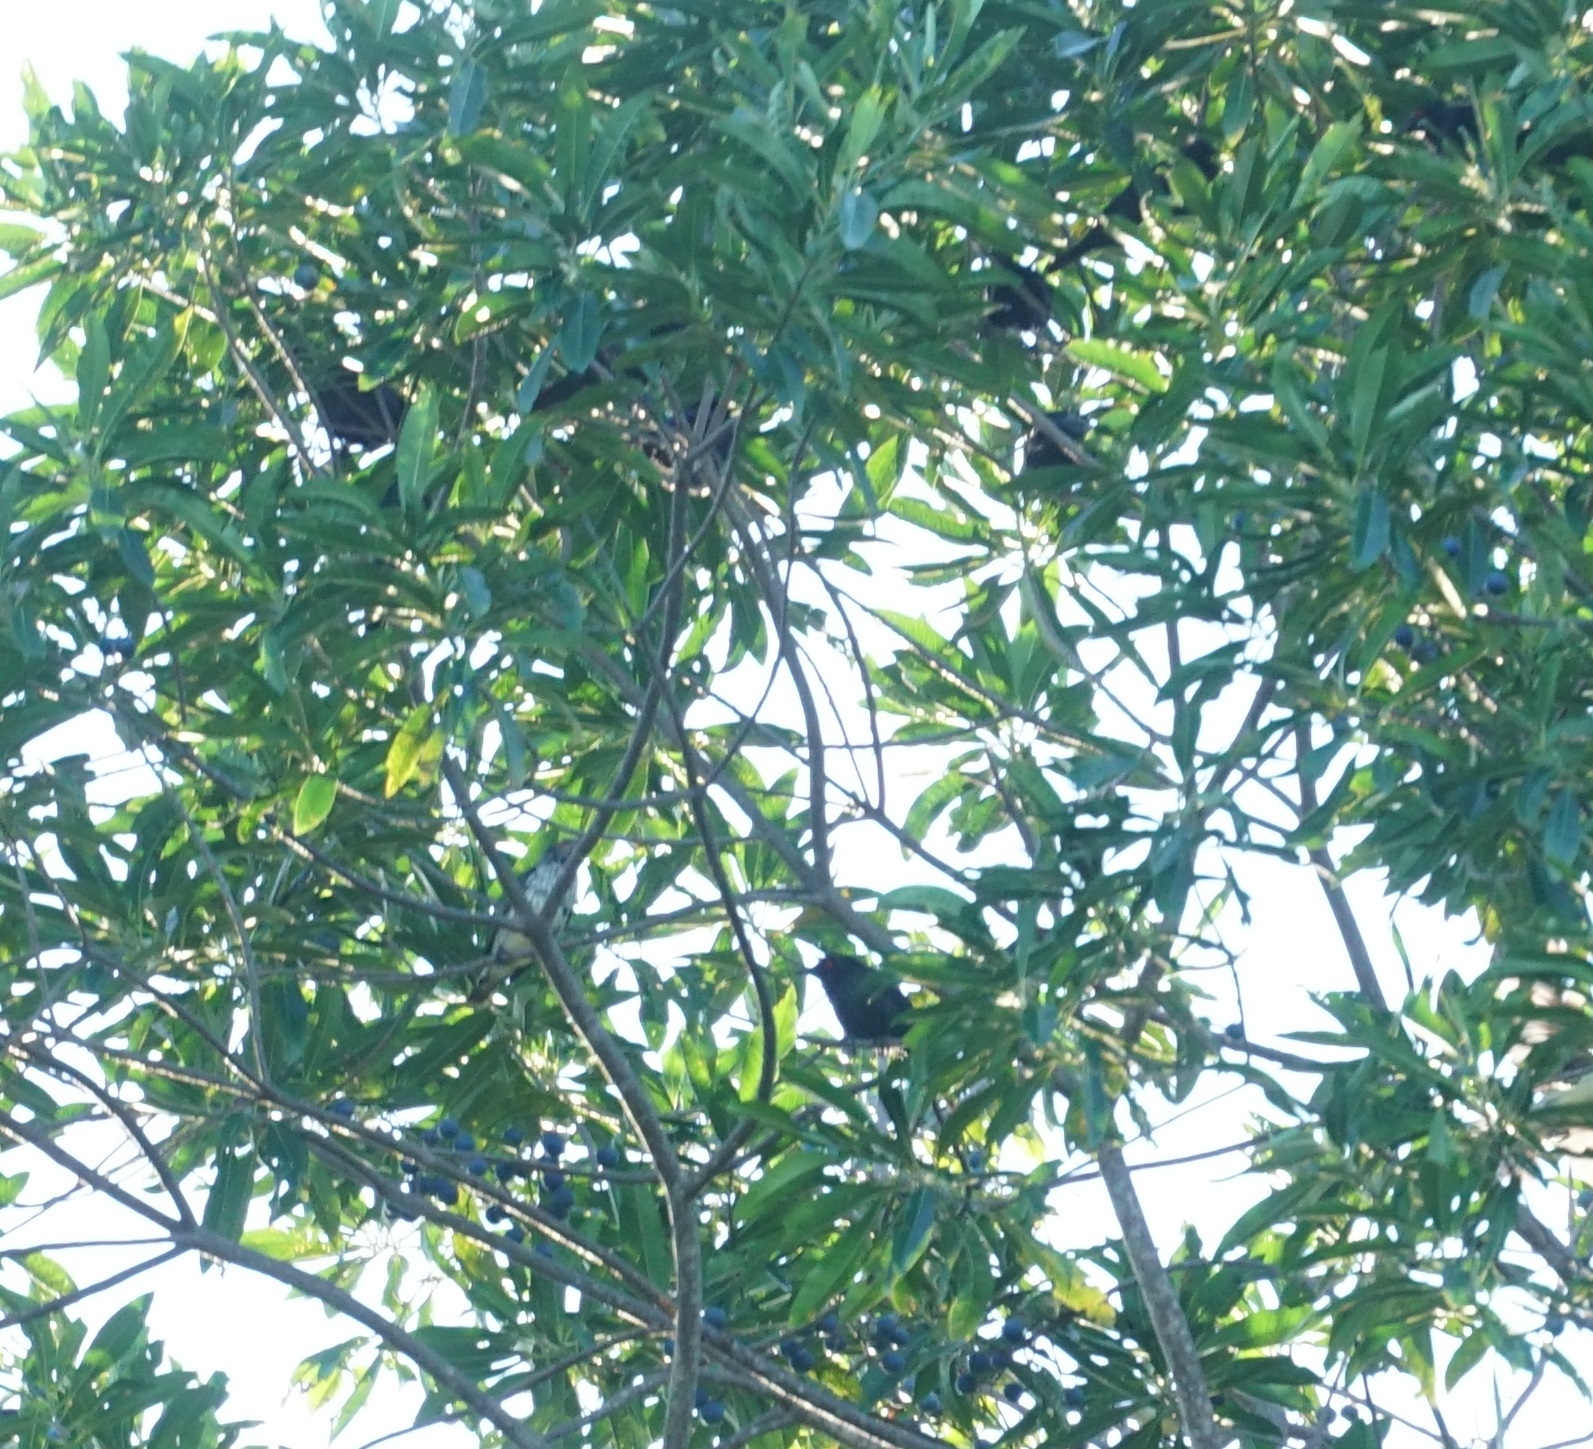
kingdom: Animalia
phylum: Chordata
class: Aves
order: Passeriformes
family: Sturnidae
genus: Aplonis
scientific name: Aplonis metallica
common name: Metallic starling
